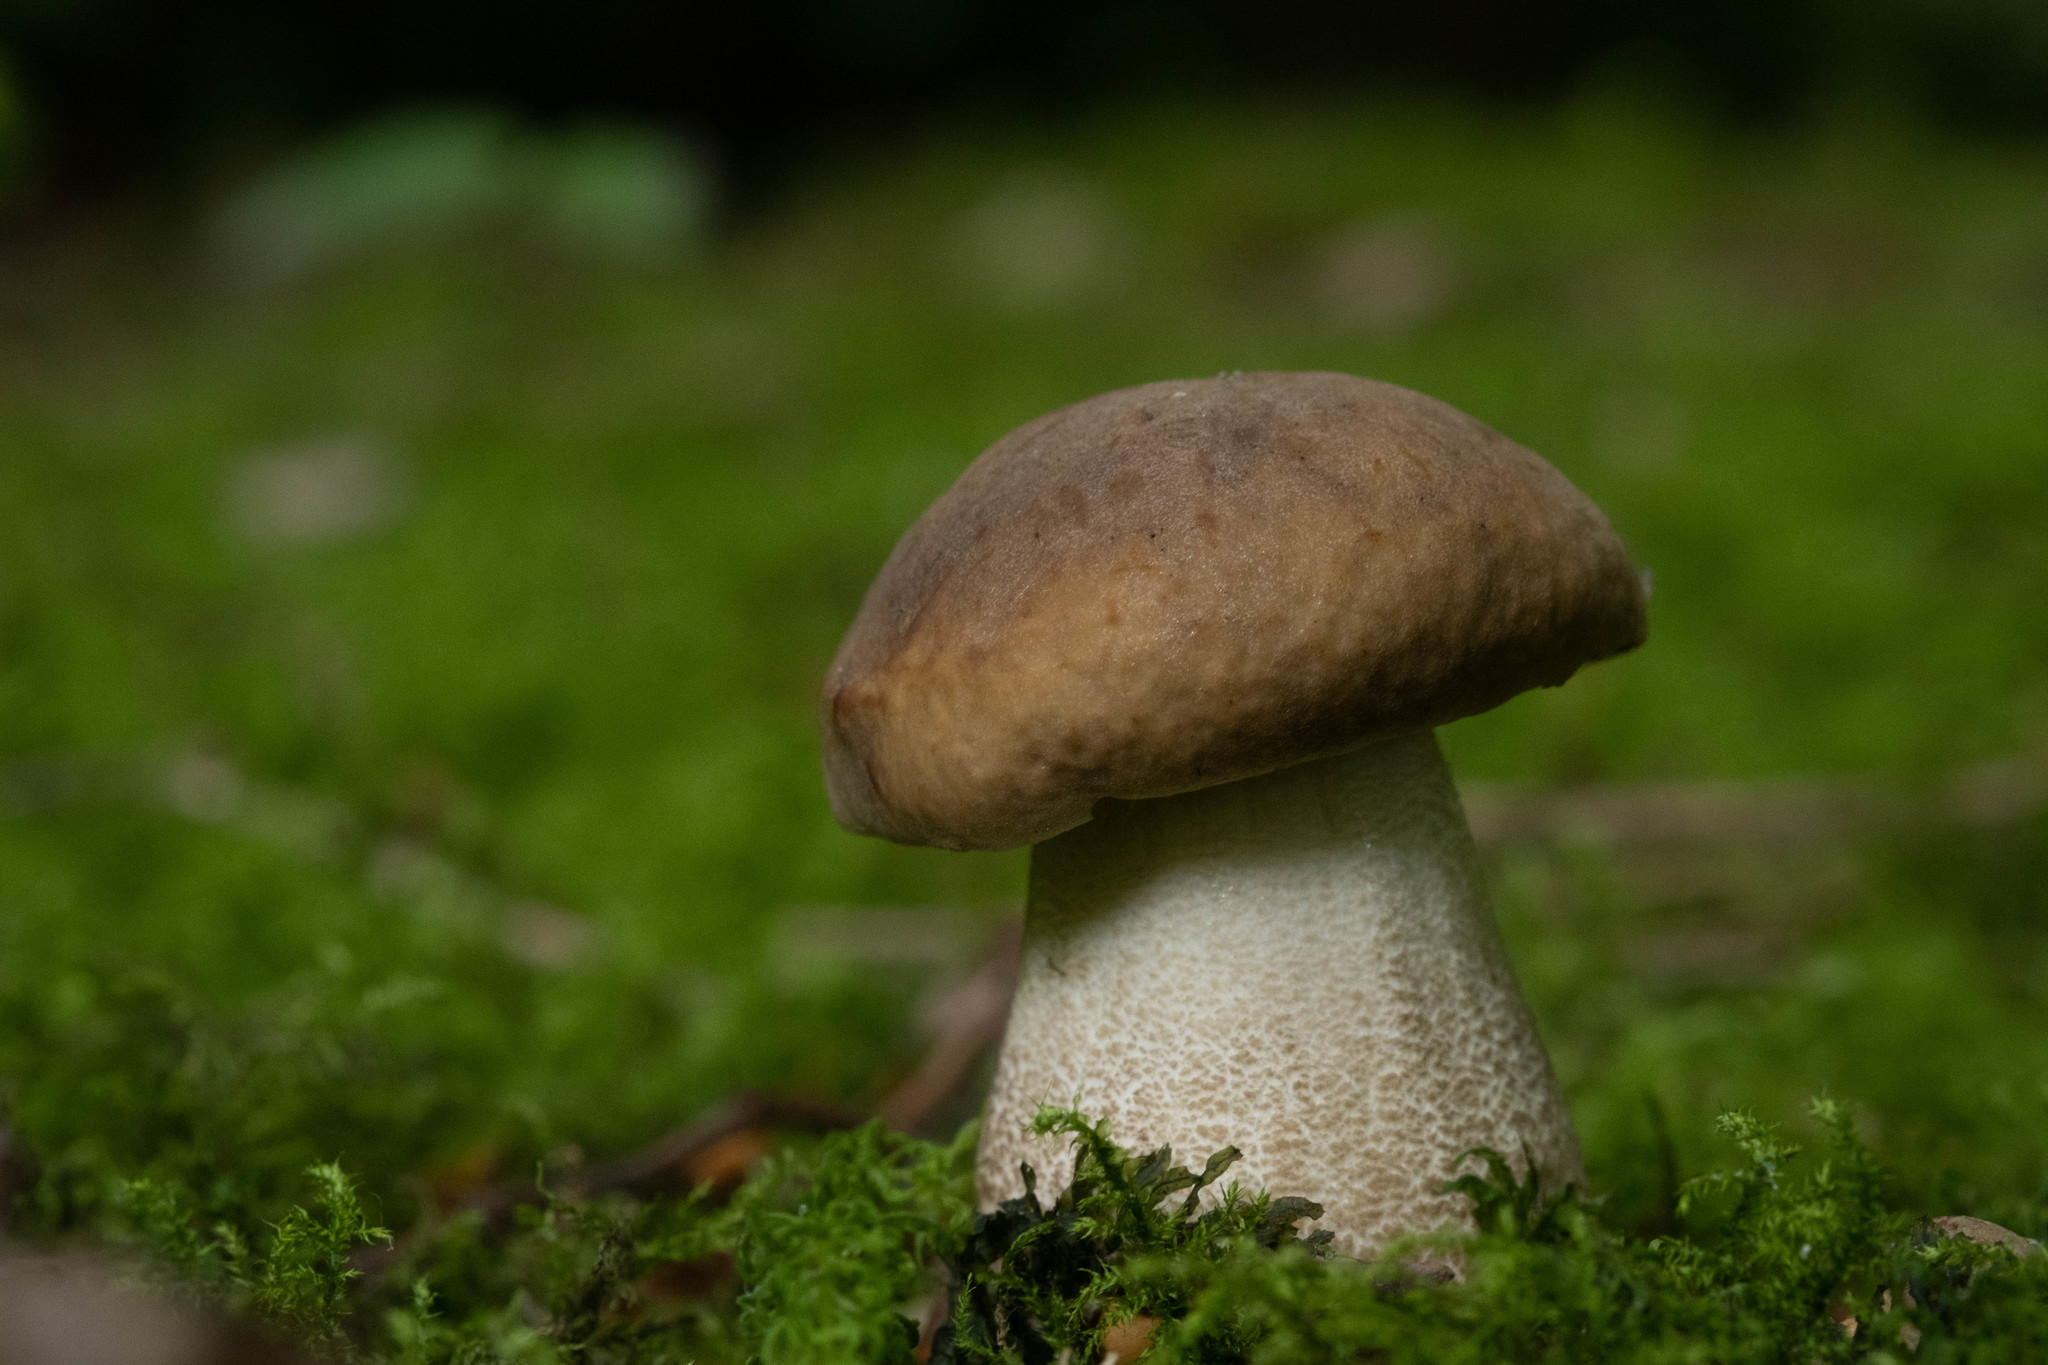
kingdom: Fungi
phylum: Basidiomycota
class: Agaricomycetes
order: Boletales
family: Boletaceae
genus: Leccinellum
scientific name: Leccinellum pseudoscabrum
